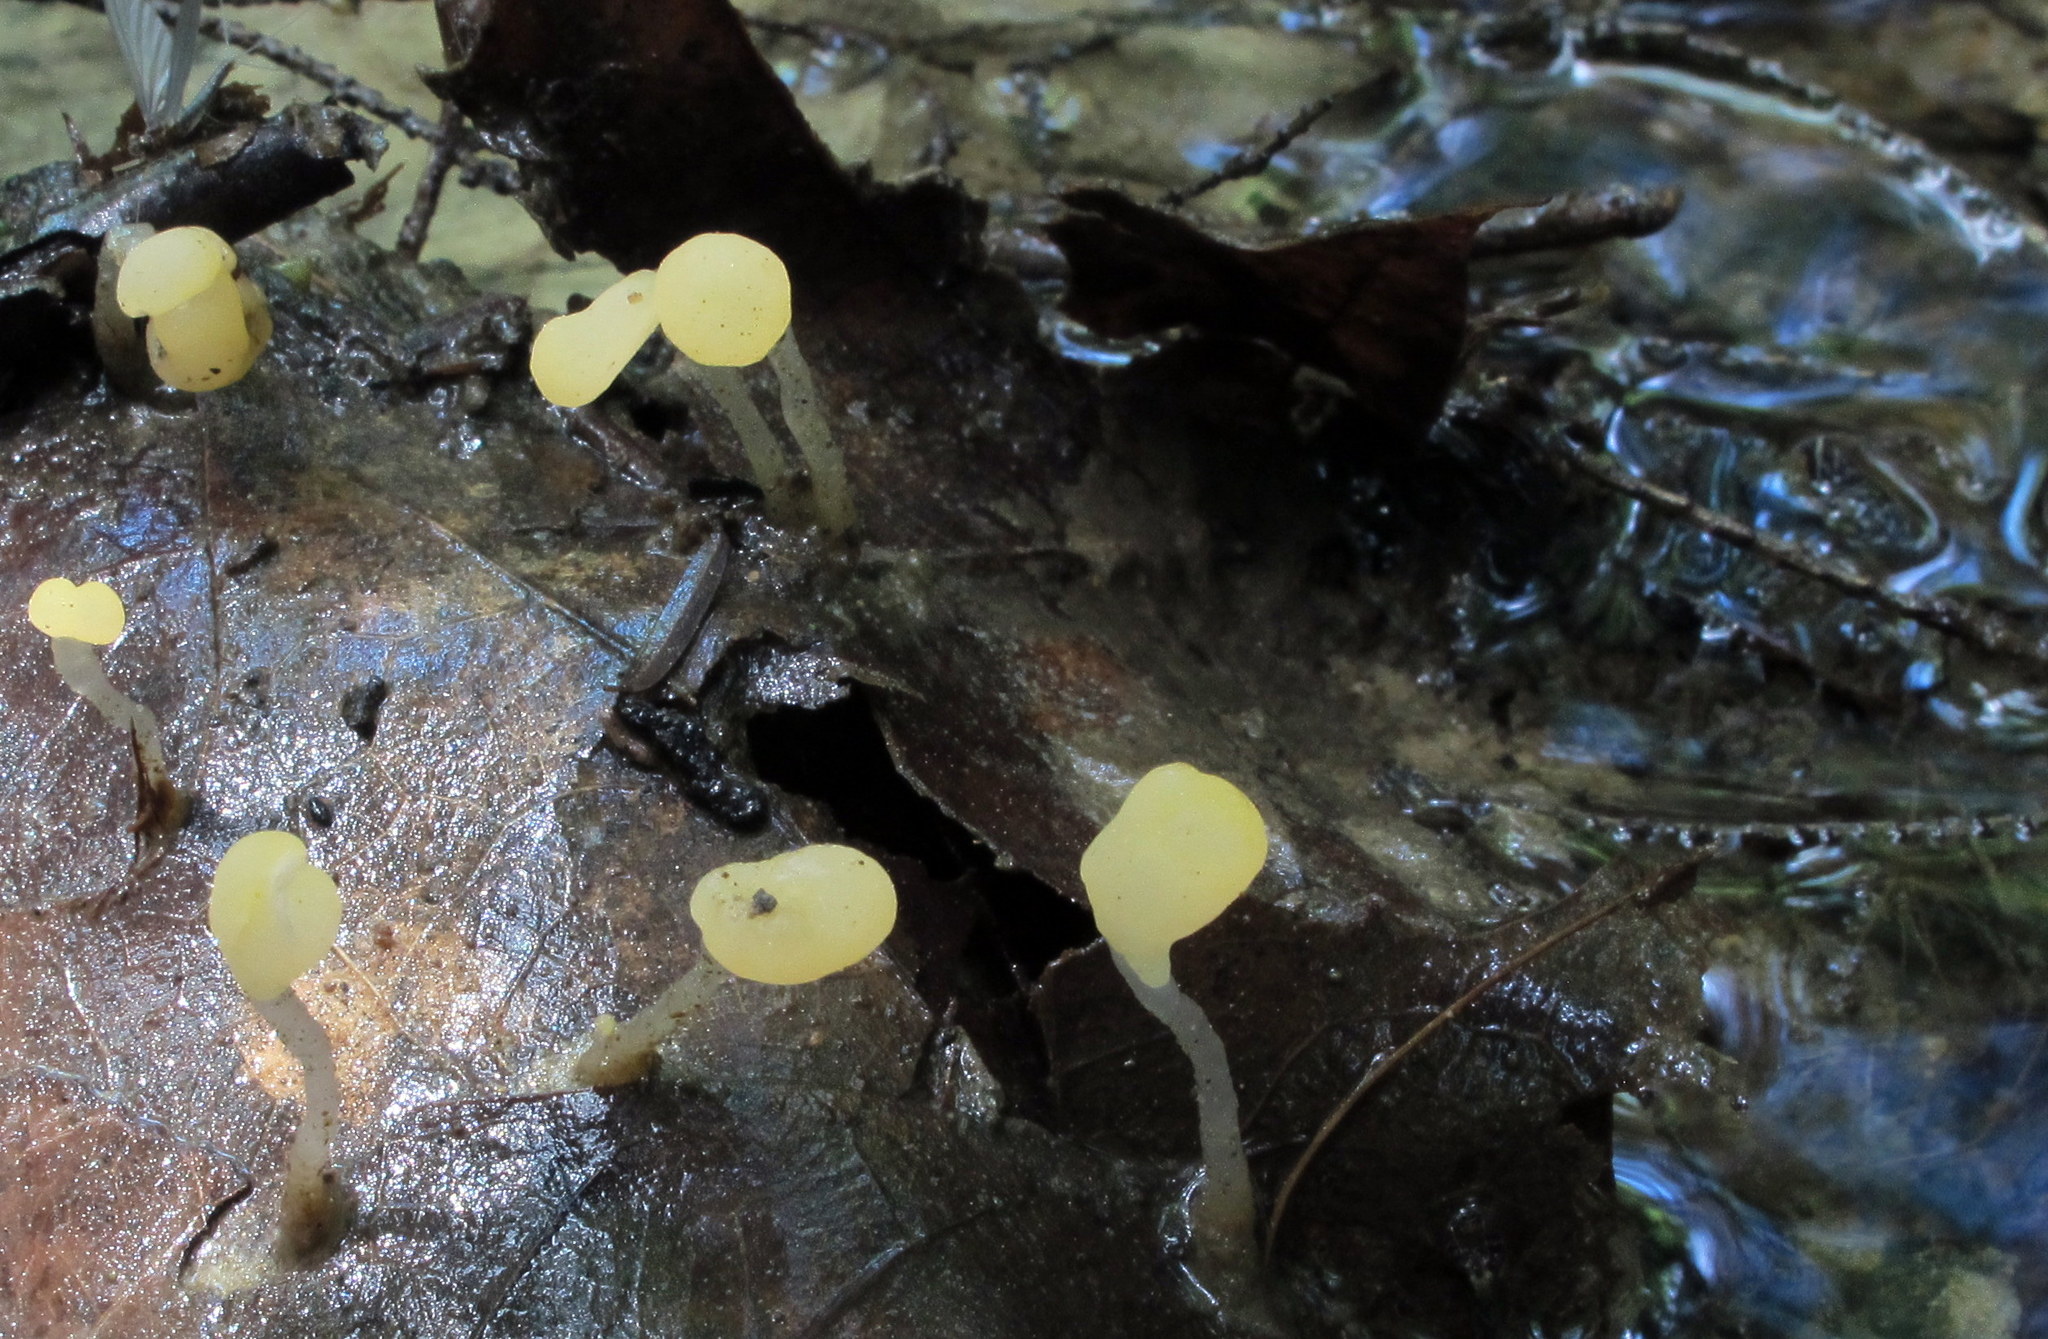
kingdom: Fungi
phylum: Ascomycota
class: Leotiomycetes
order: Helotiales
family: Sclerotiniaceae
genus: Mitrula
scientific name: Mitrula elegans
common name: Swamp beacon
